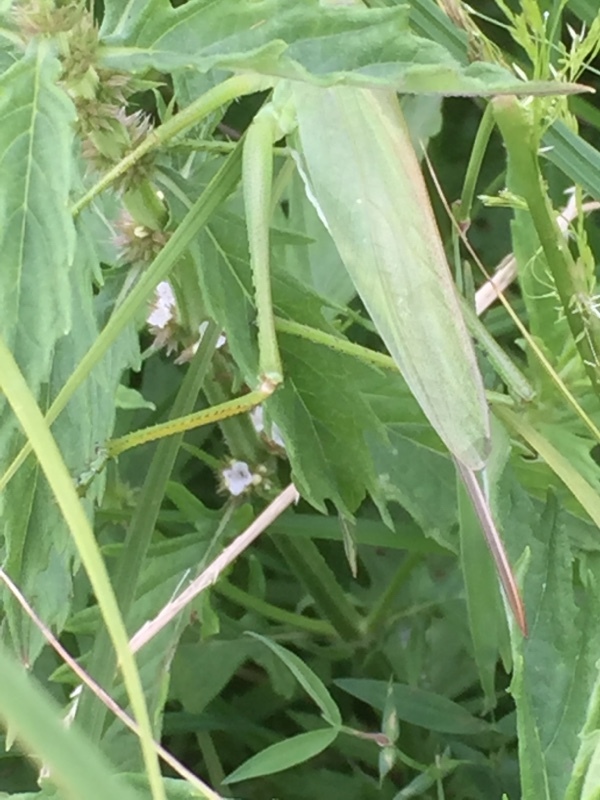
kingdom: Animalia
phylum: Arthropoda
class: Insecta
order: Orthoptera
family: Tettigoniidae
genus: Tettigonia
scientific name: Tettigonia caudata
